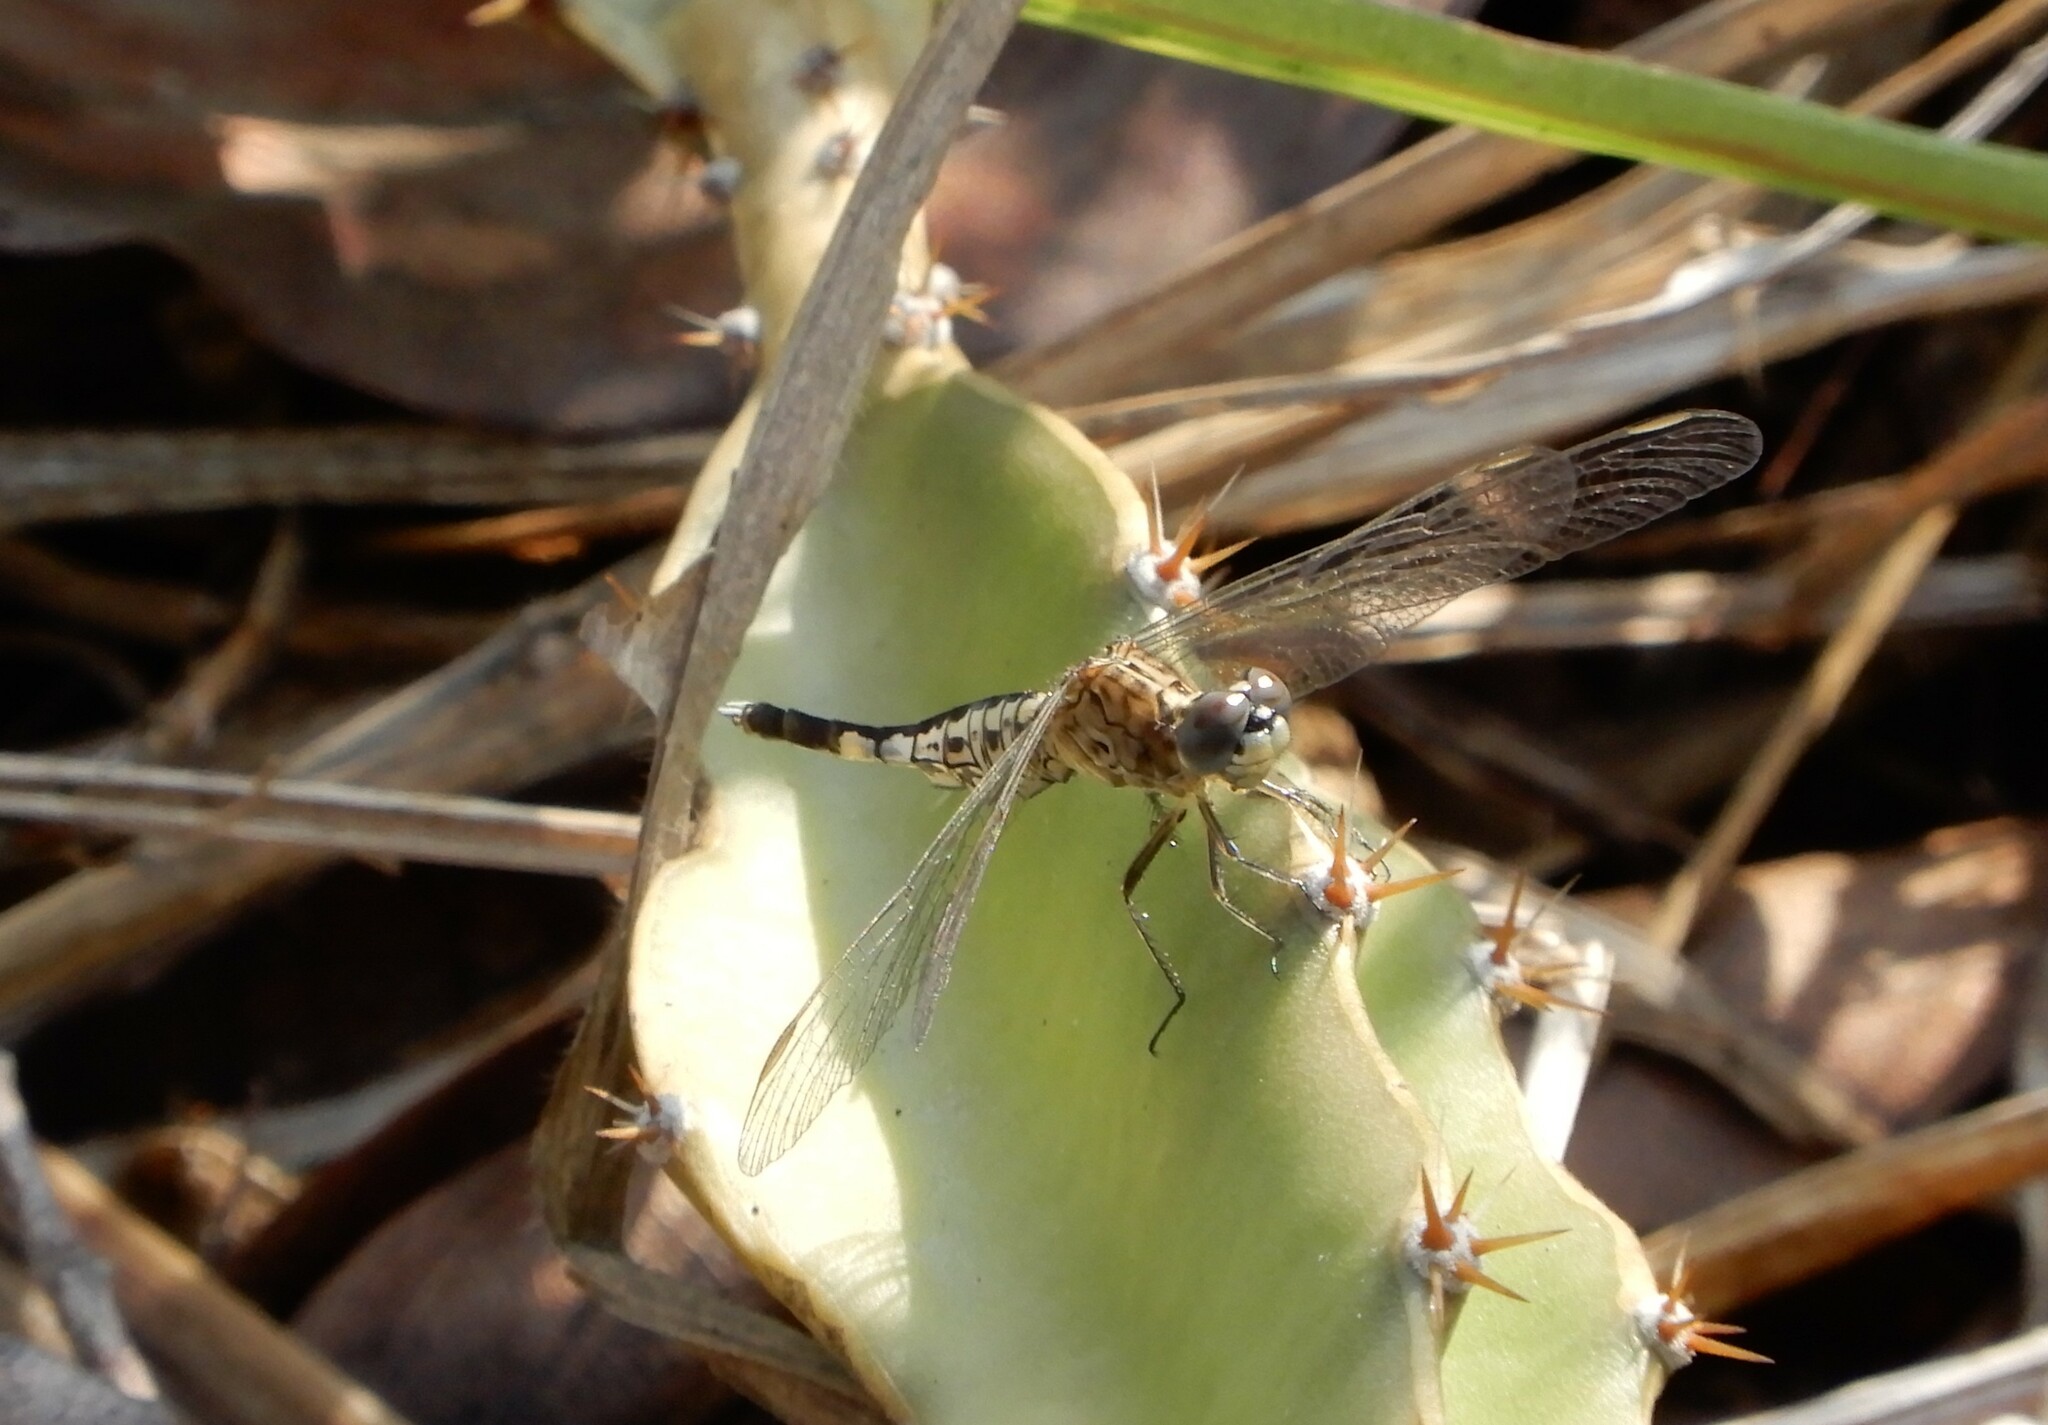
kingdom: Animalia
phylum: Arthropoda
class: Insecta
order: Odonata
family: Libellulidae
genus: Acisoma
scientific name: Acisoma panorpoides
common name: Asian pintail
